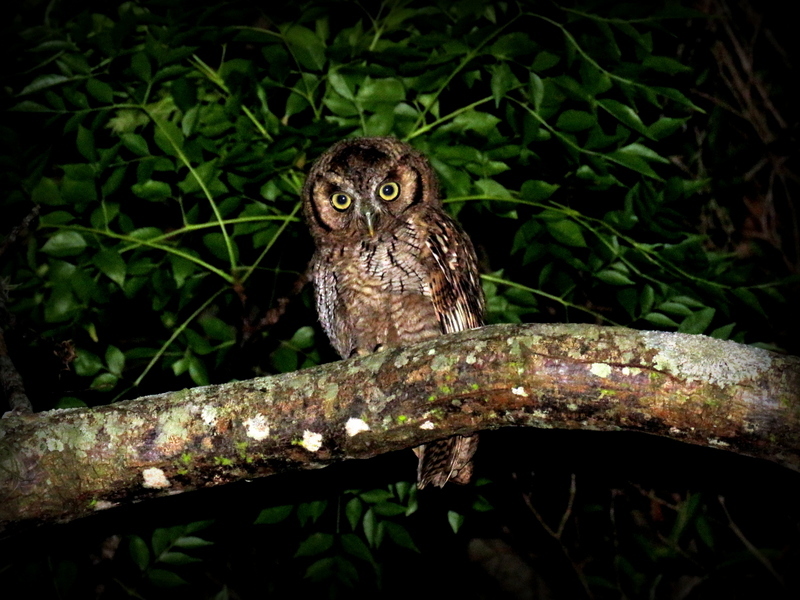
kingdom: Animalia
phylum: Chordata
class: Aves
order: Strigiformes
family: Strigidae
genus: Megascops
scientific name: Megascops choliba
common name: Tropical screech-owl
